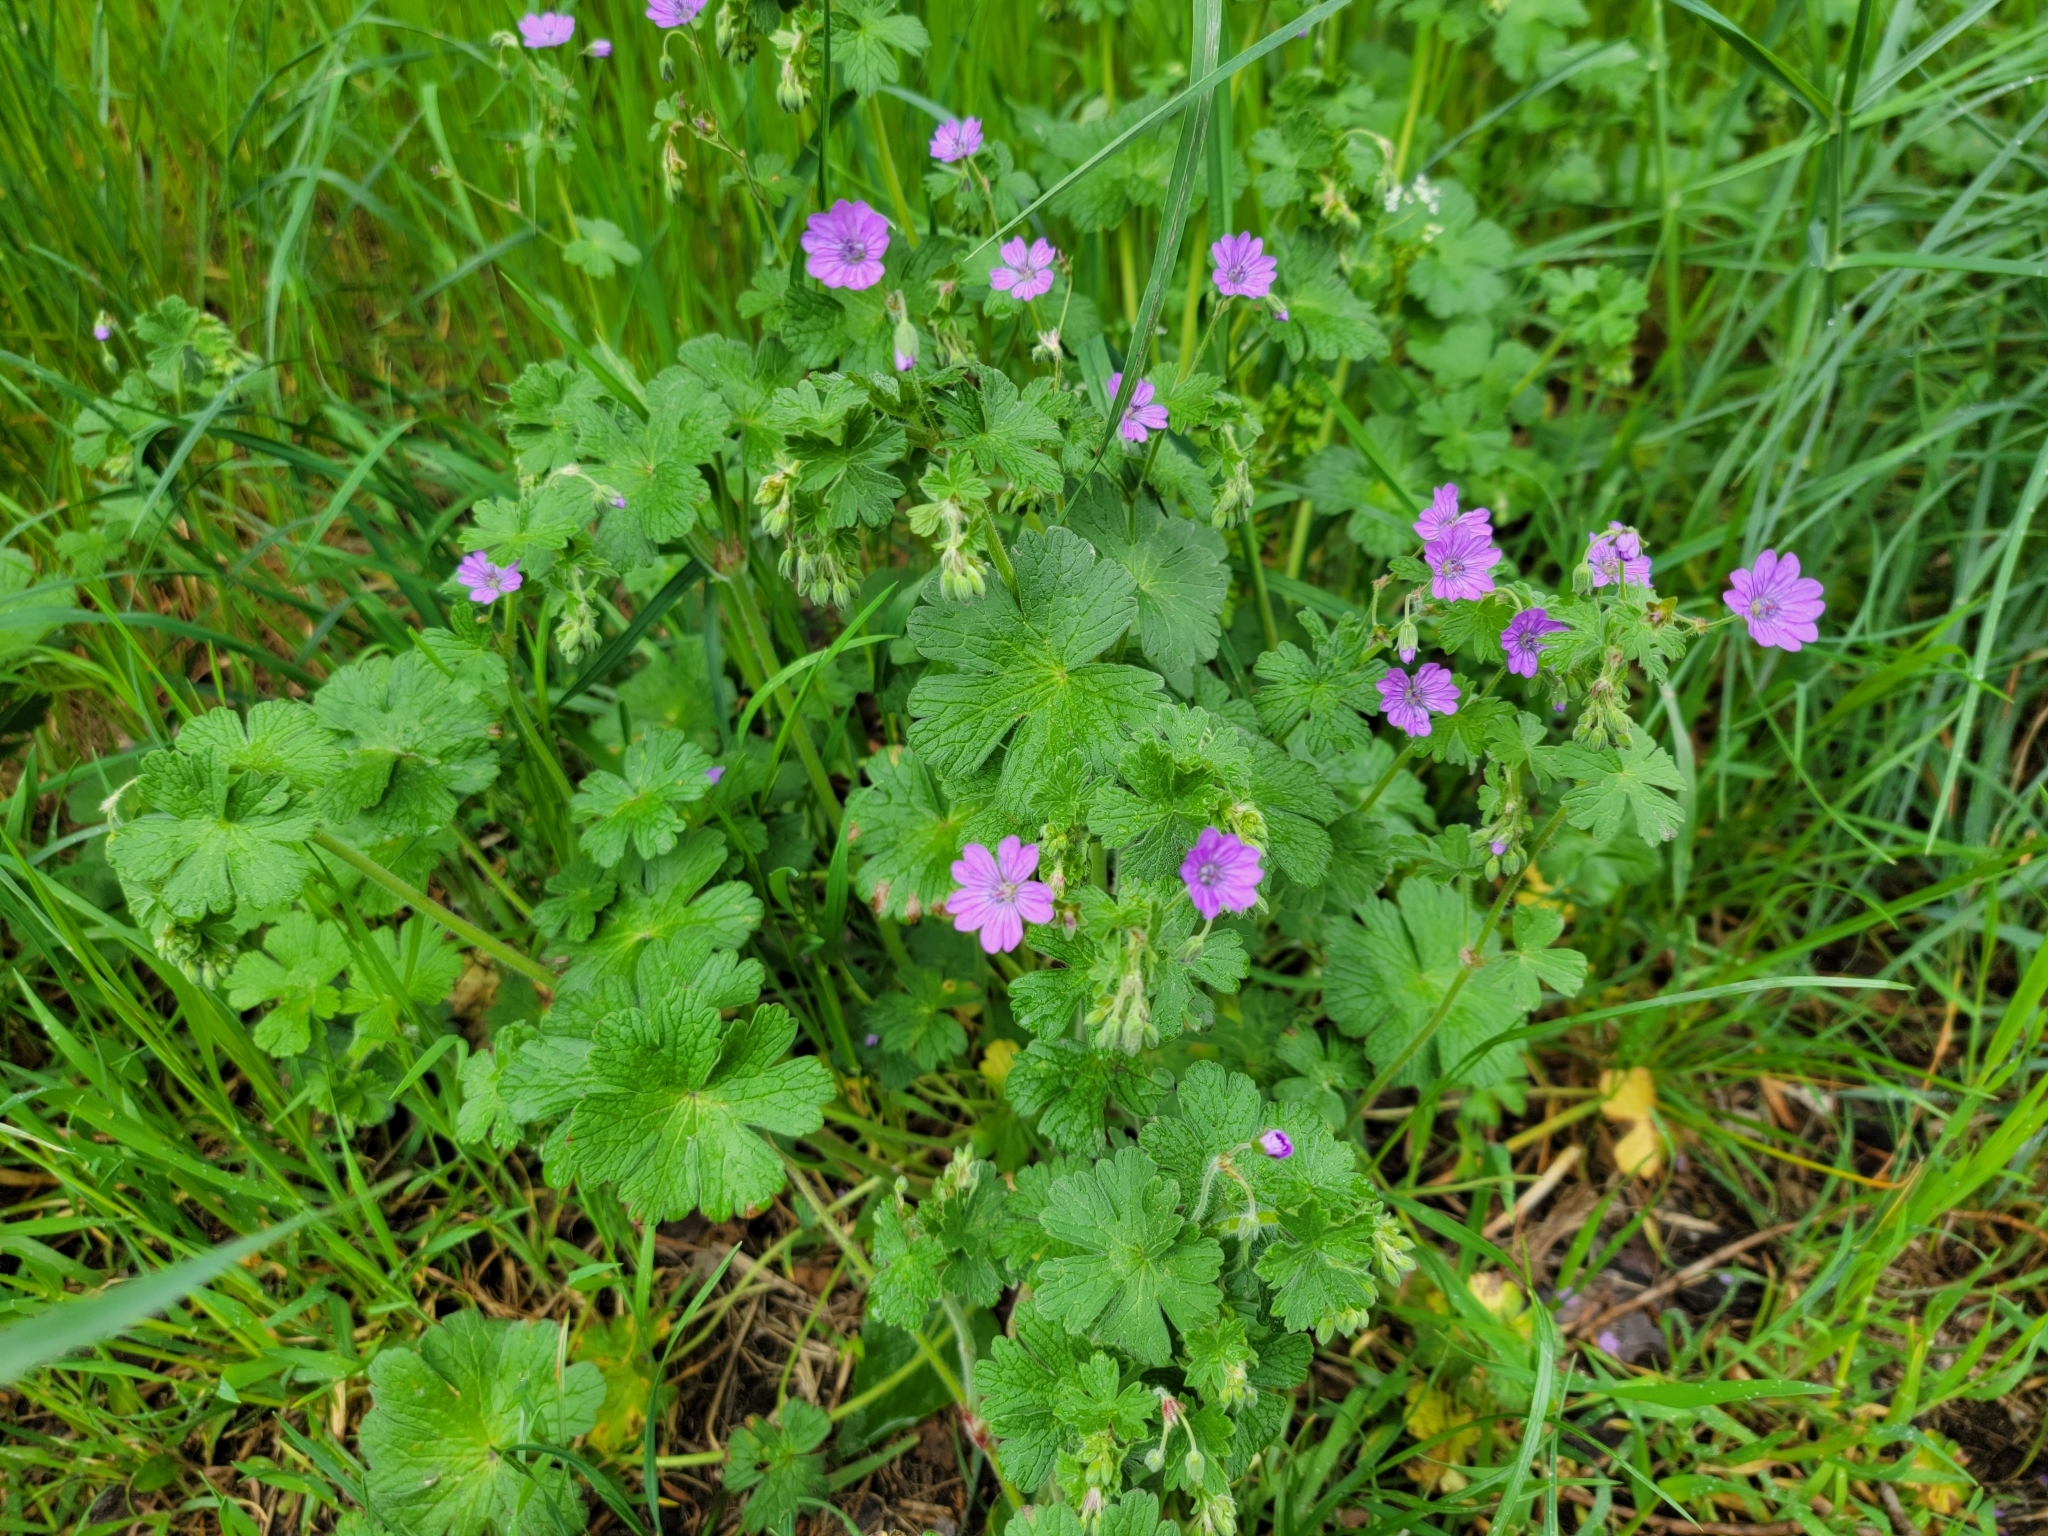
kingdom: Plantae
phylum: Tracheophyta
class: Magnoliopsida
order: Geraniales
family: Geraniaceae
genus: Geranium
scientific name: Geranium pyrenaicum
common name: Hedgerow crane's-bill
